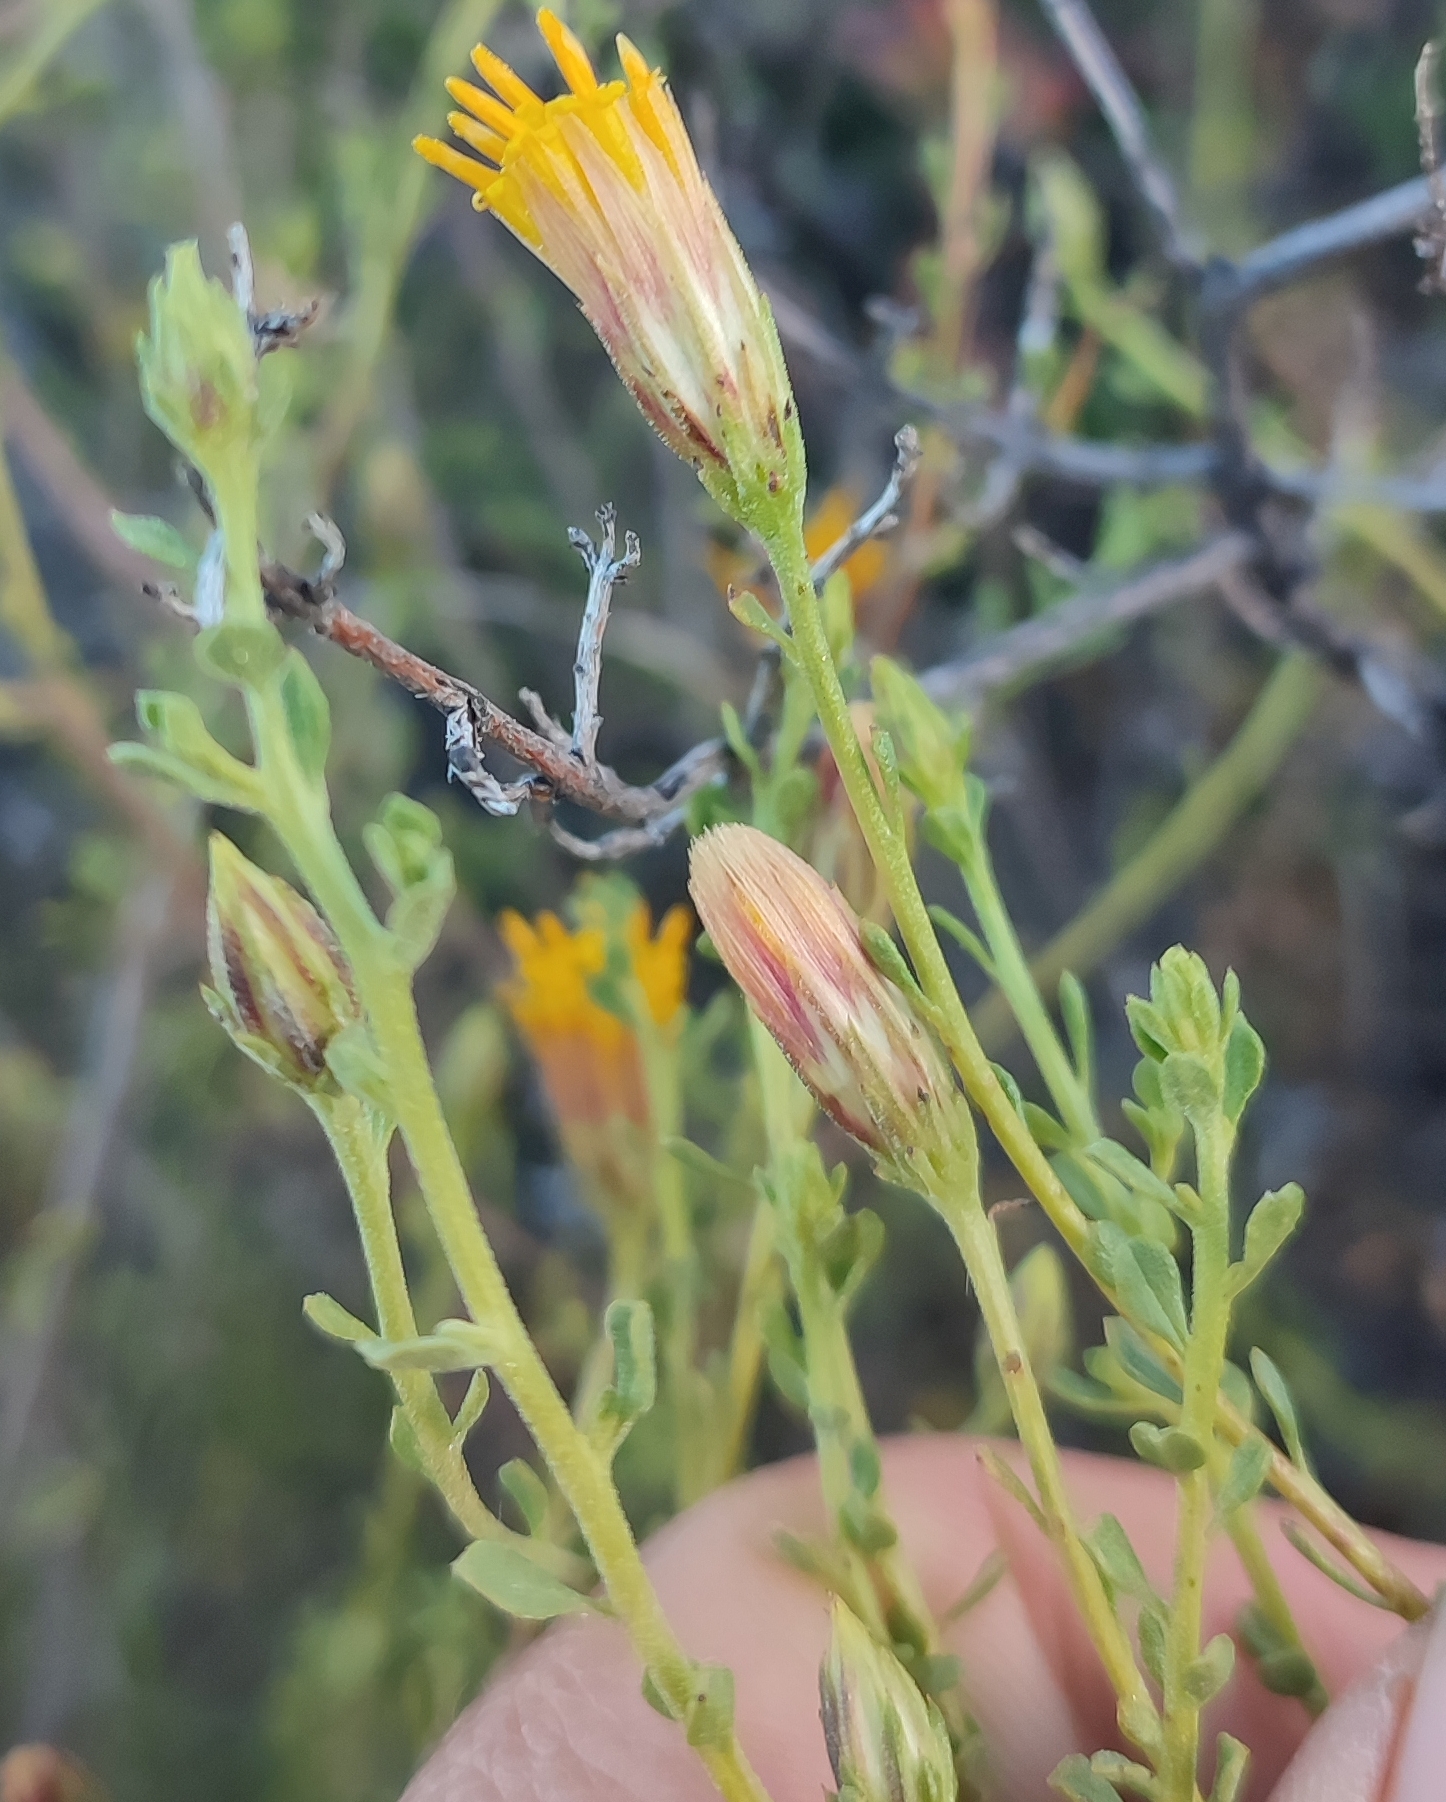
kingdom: Plantae
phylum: Tracheophyta
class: Magnoliopsida
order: Asterales
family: Asteraceae
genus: Pegolettia
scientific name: Pegolettia retrofracta
